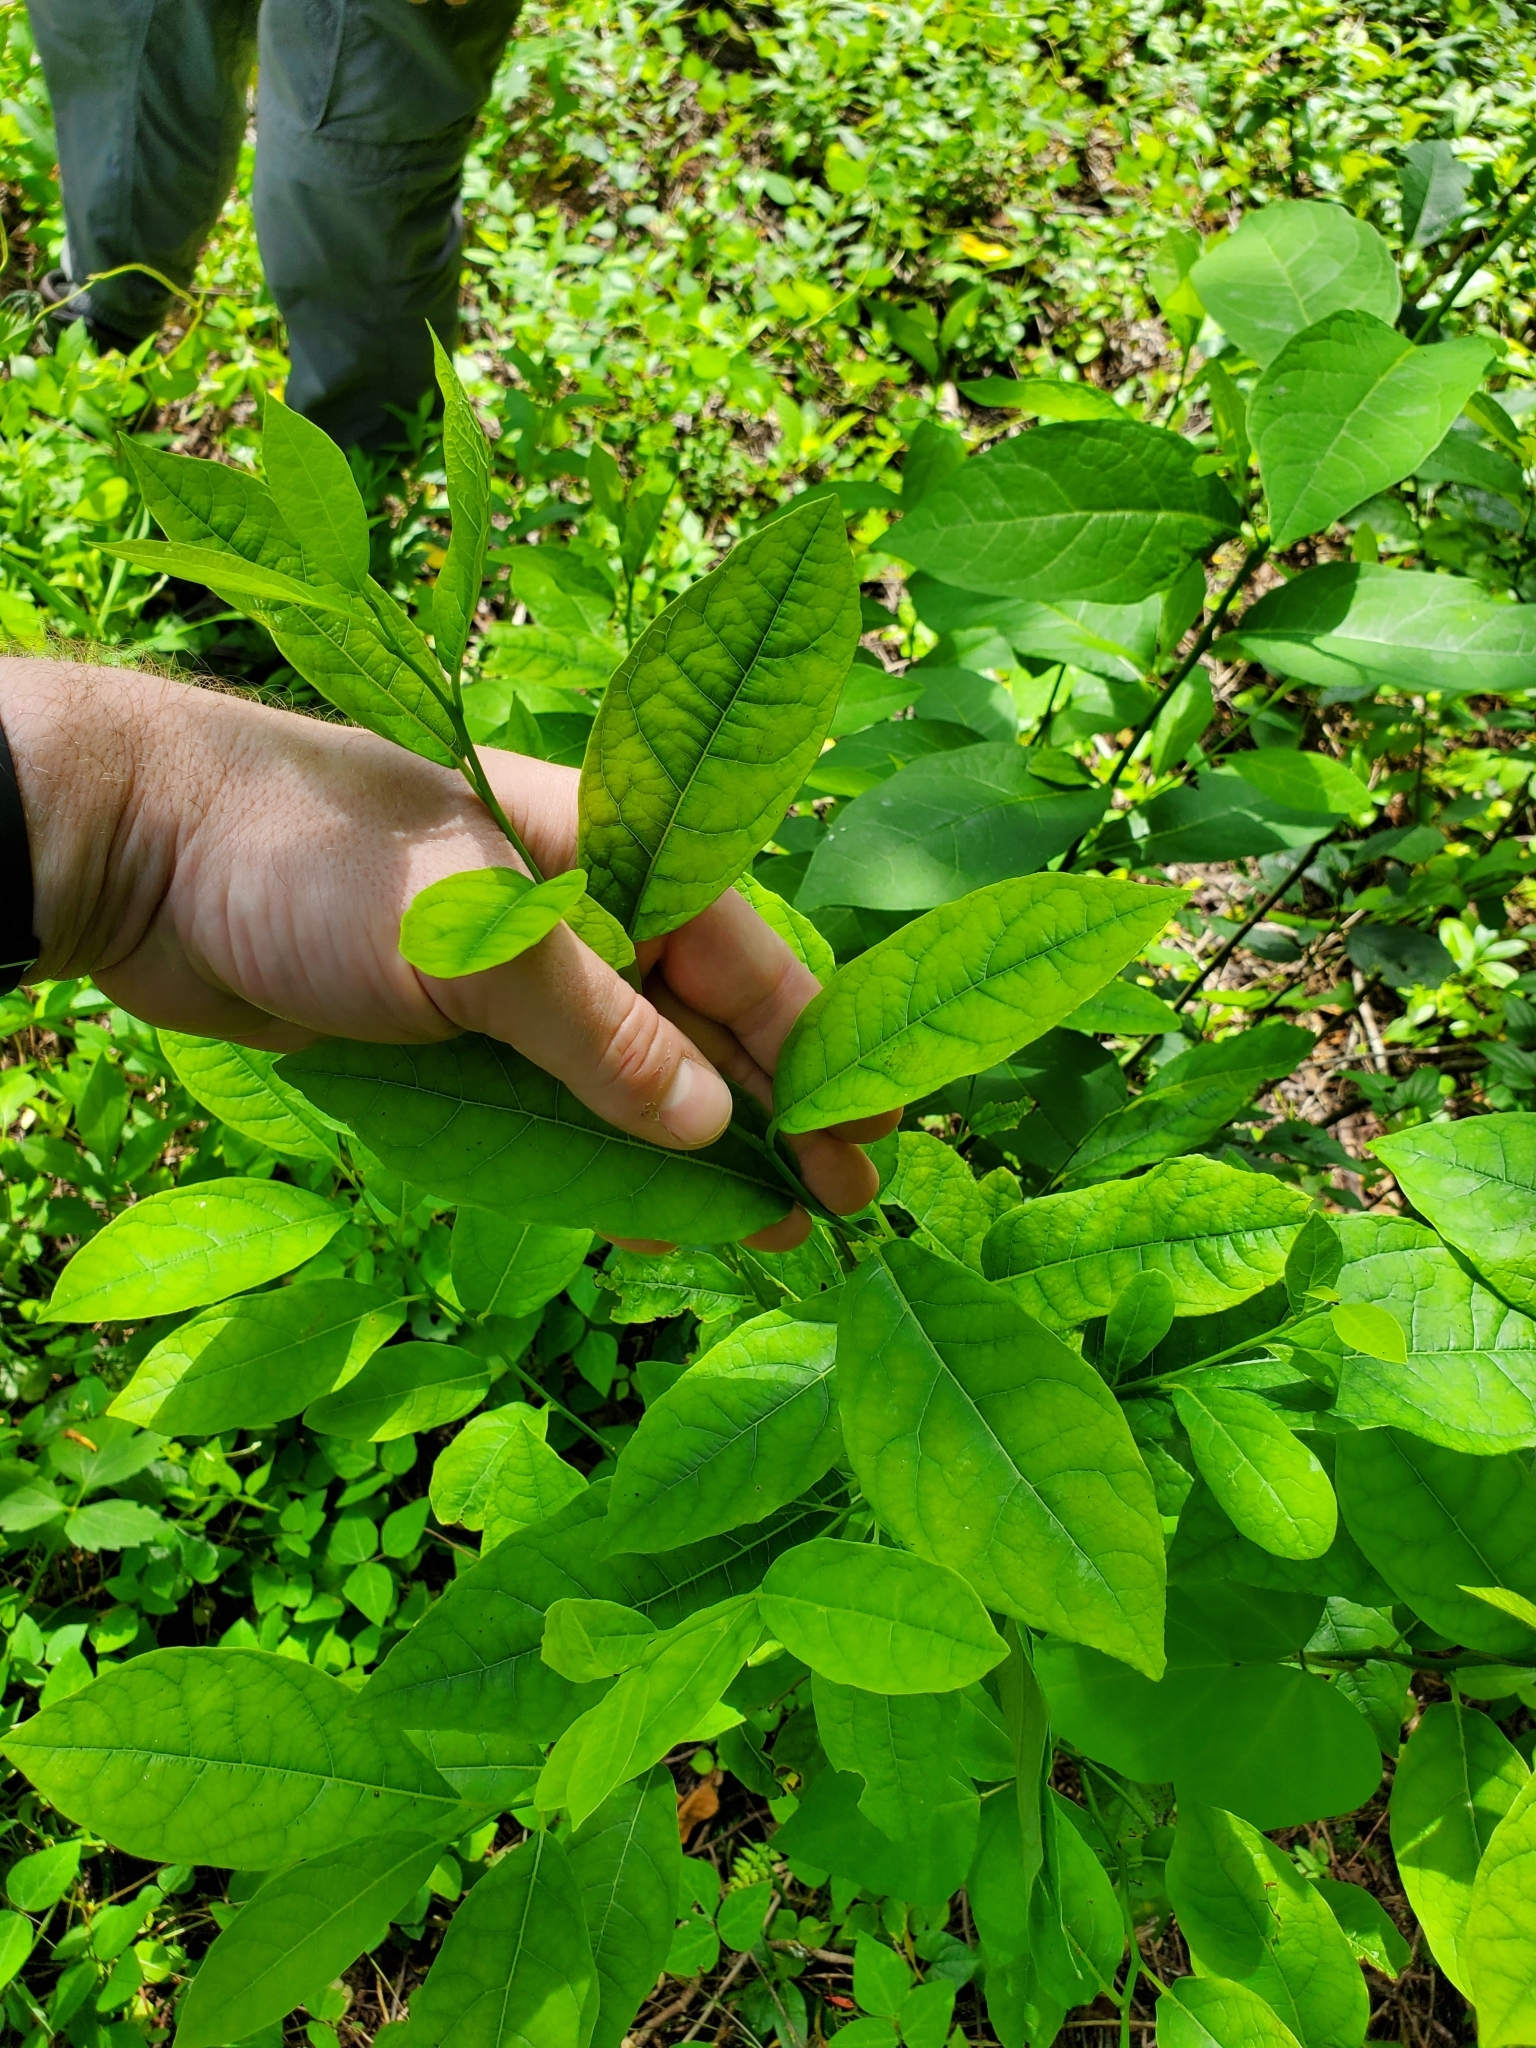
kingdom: Plantae
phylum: Tracheophyta
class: Magnoliopsida
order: Laurales
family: Lauraceae
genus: Lindera
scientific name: Lindera benzoin
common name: Spicebush
